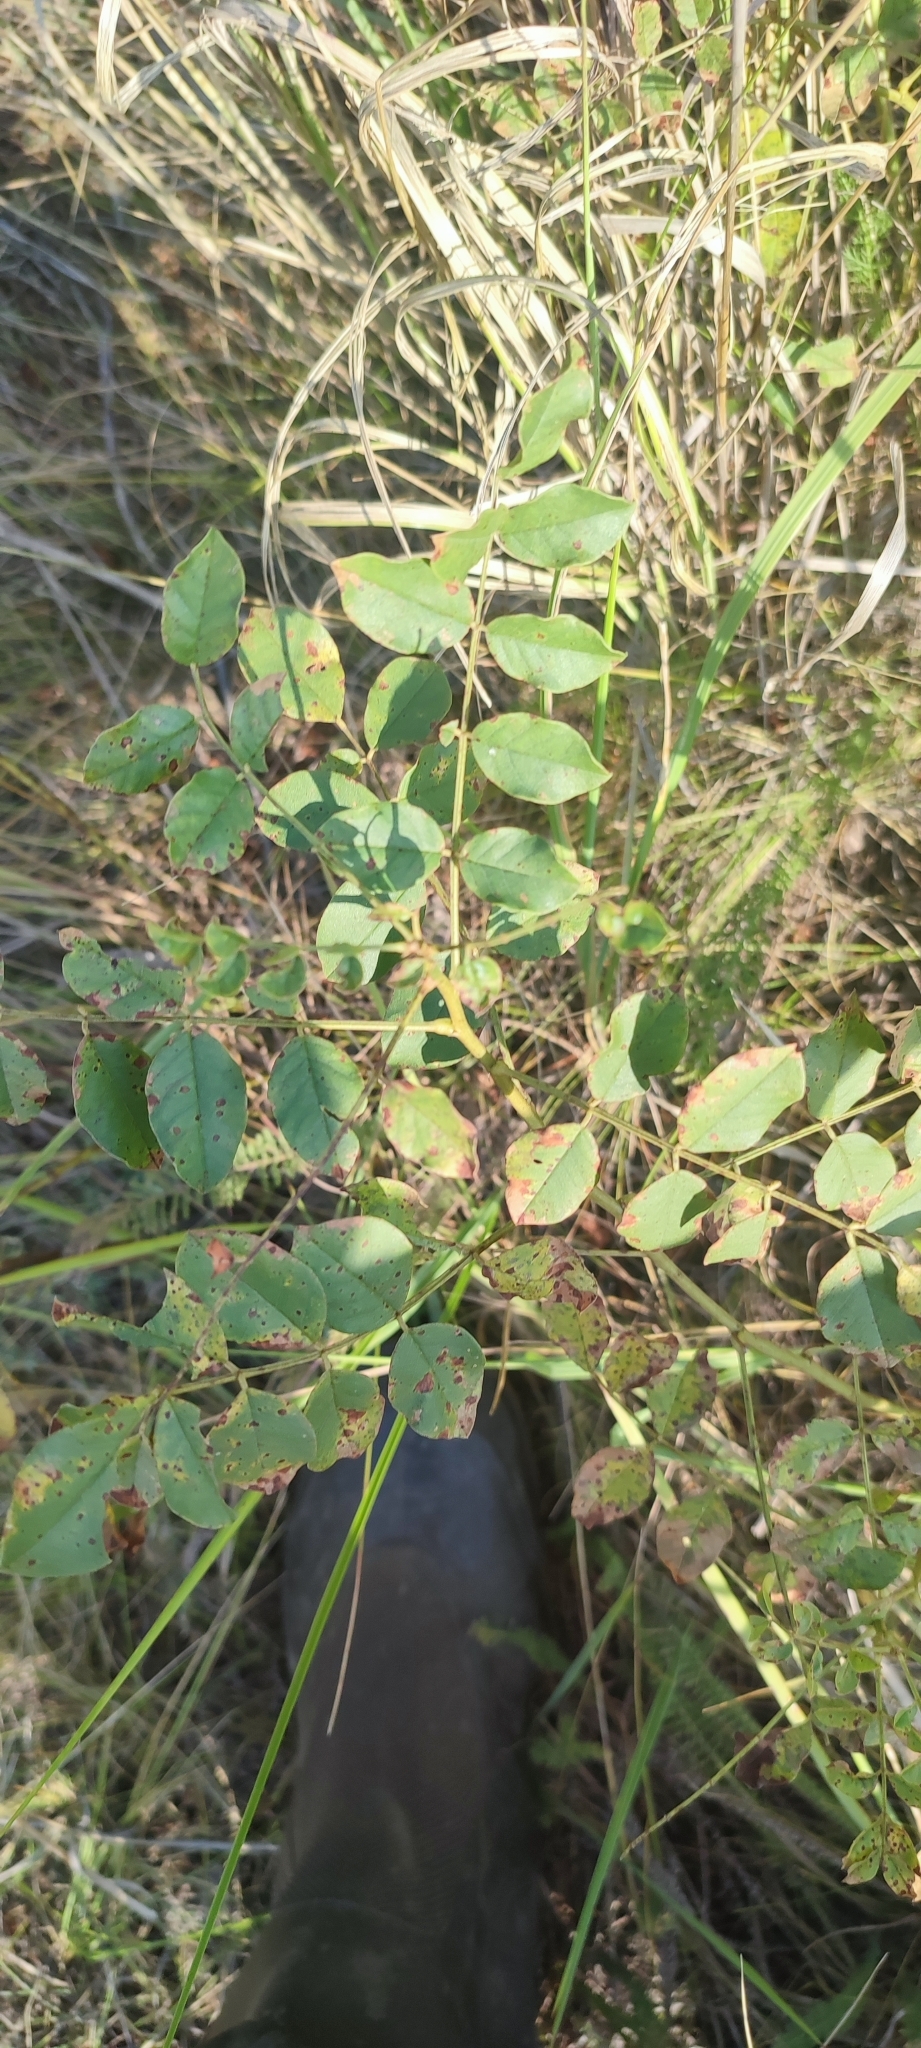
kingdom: Plantae
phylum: Tracheophyta
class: Magnoliopsida
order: Fabales
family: Fabaceae
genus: Glycyrrhiza
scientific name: Glycyrrhiza uralensis
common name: Chinese licorice
